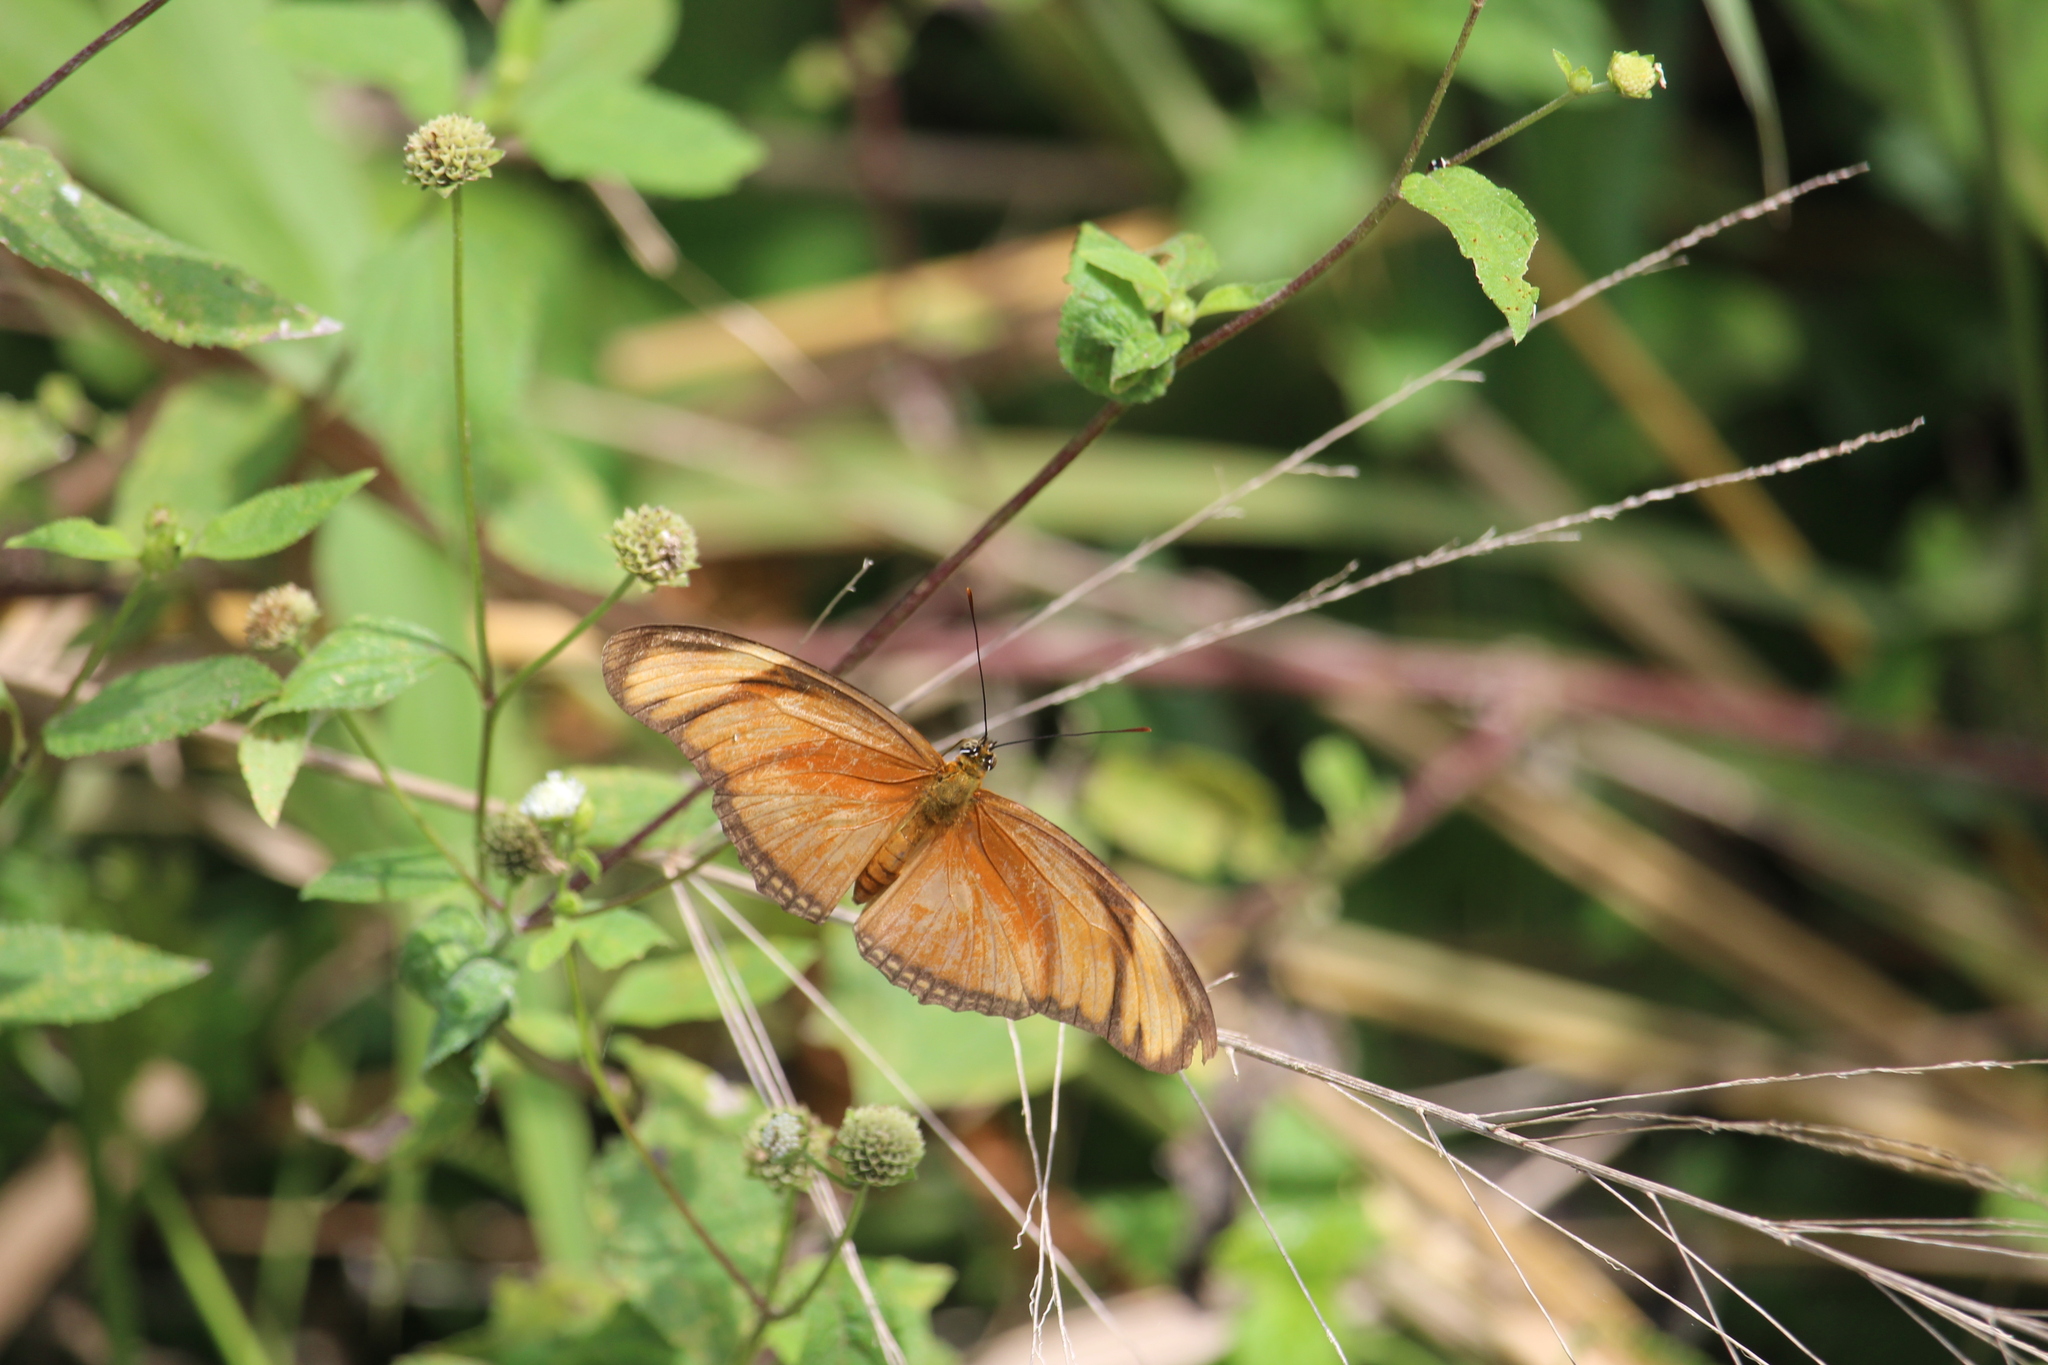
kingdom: Animalia
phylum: Arthropoda
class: Insecta
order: Lepidoptera
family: Nymphalidae
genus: Dryas
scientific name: Dryas iulia
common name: Flambeau
